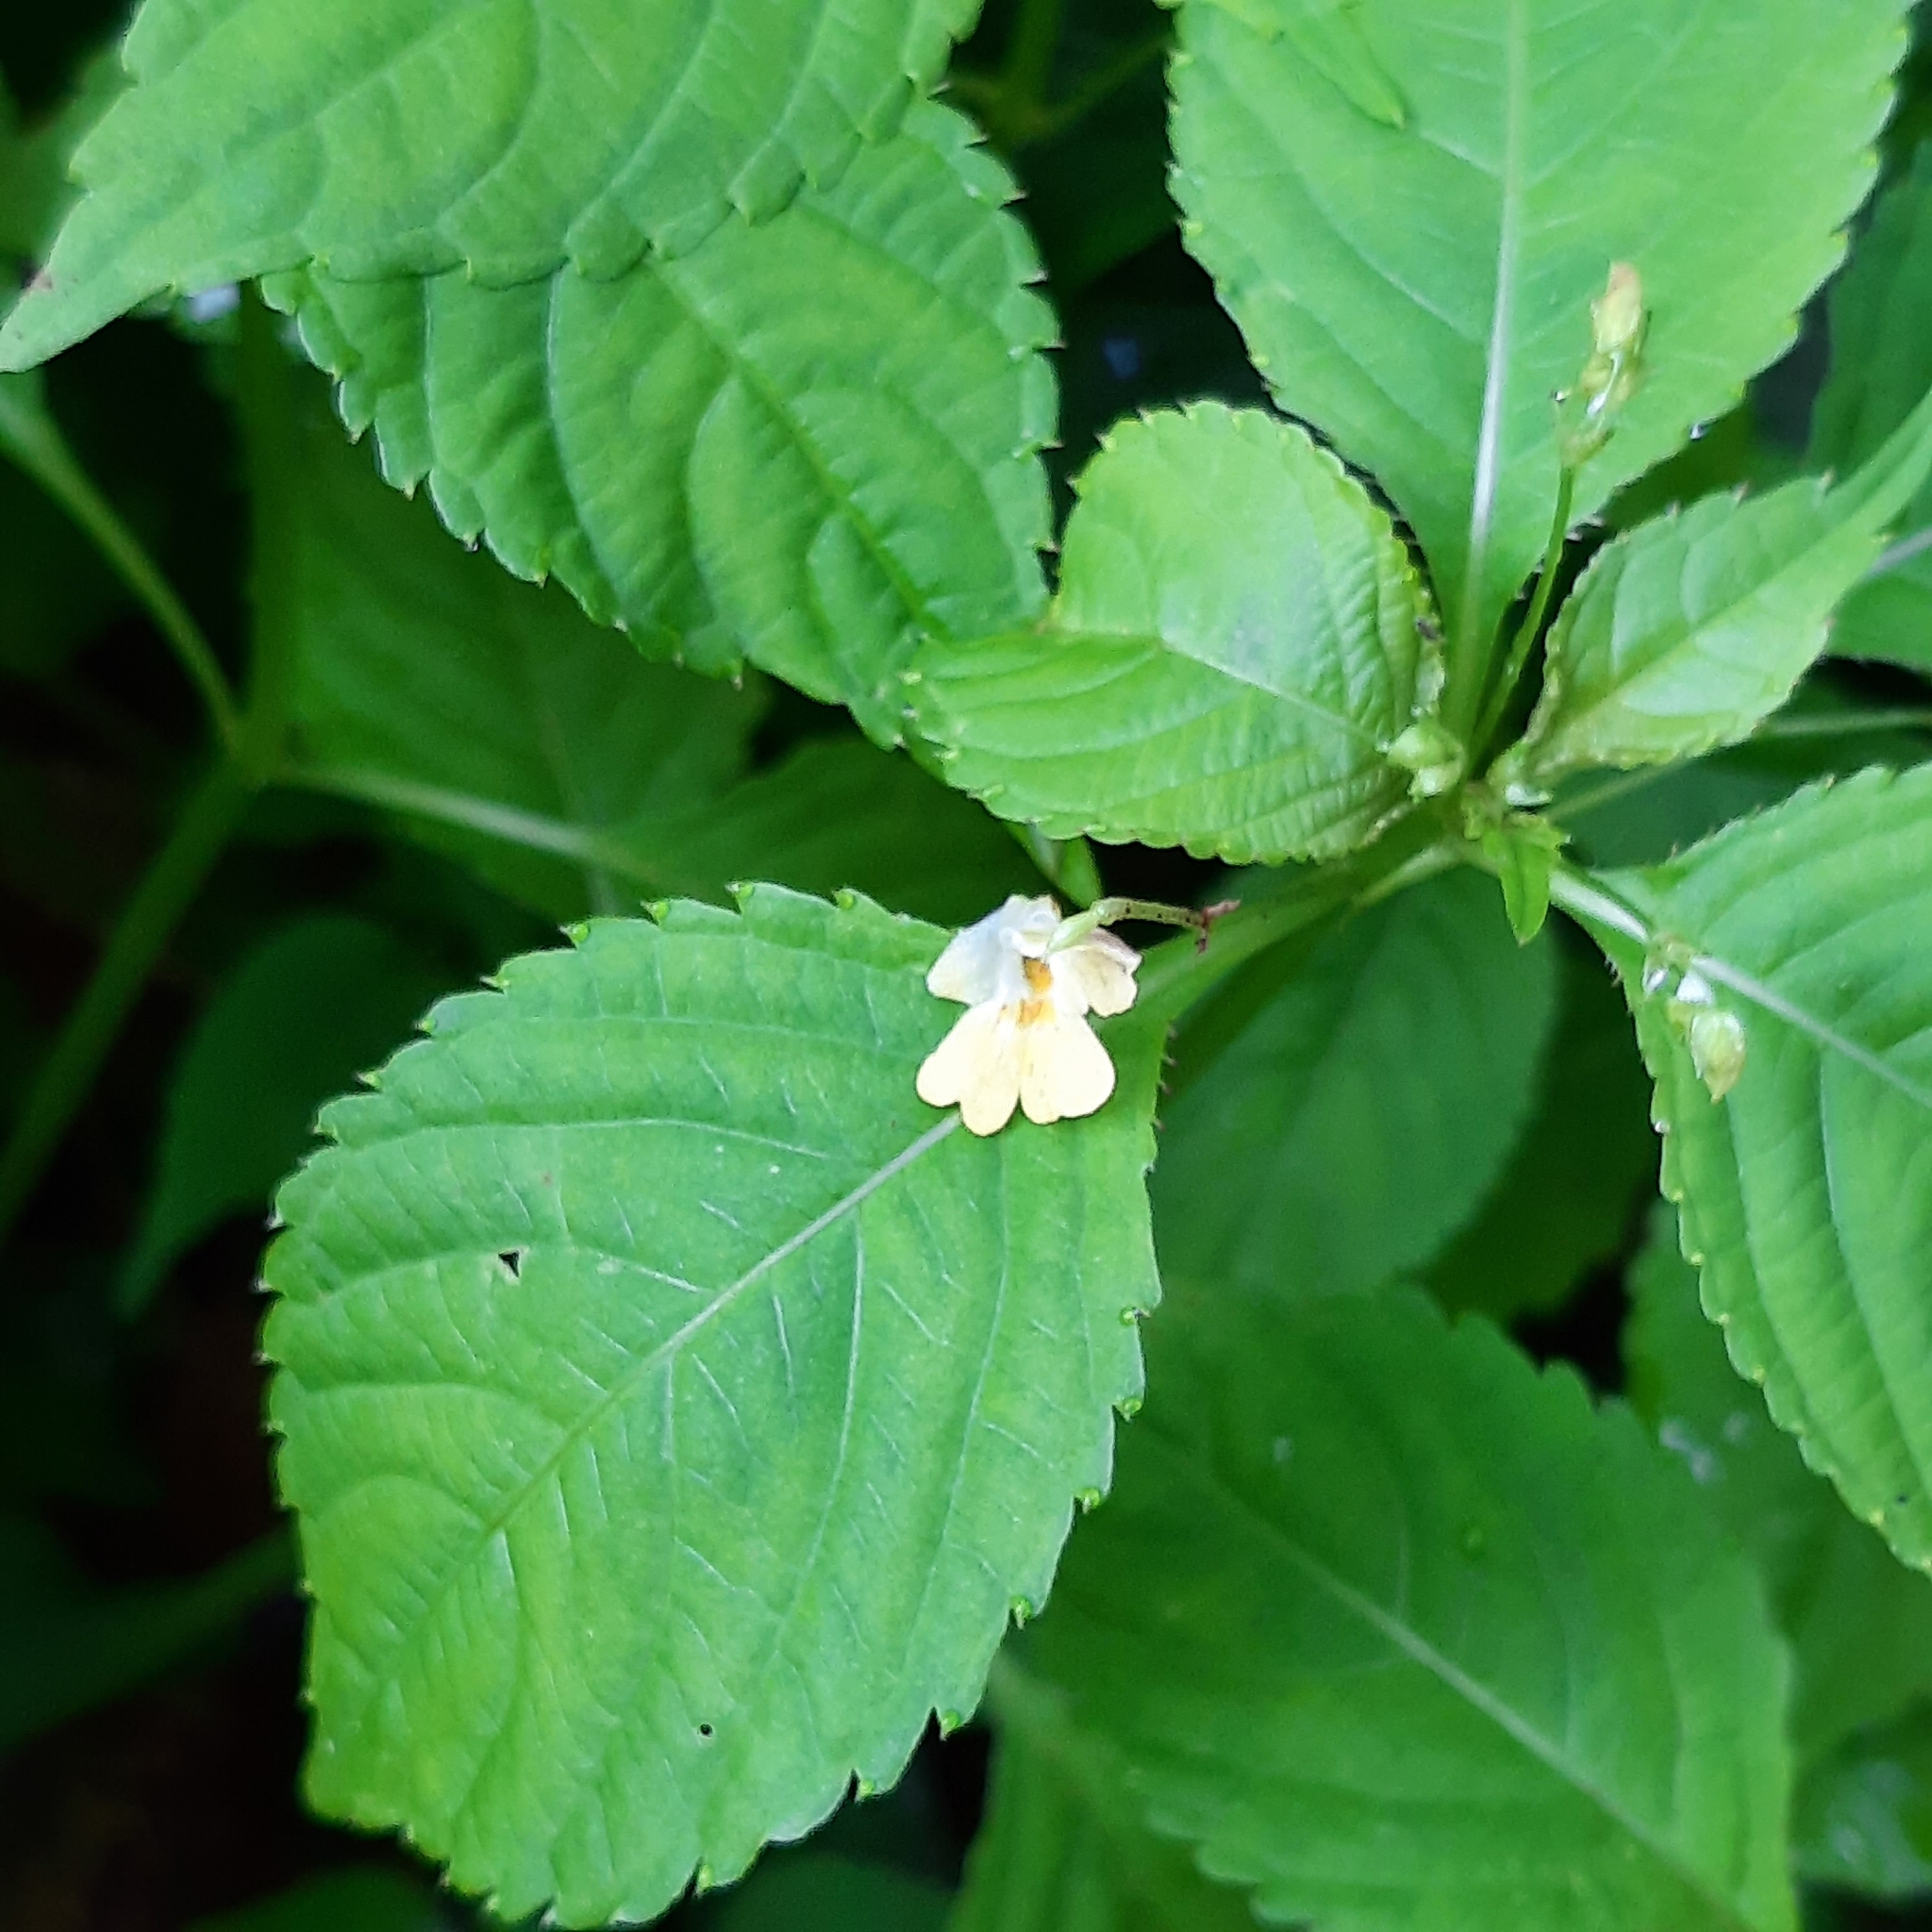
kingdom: Plantae
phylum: Tracheophyta
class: Magnoliopsida
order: Ericales
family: Balsaminaceae
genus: Impatiens
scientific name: Impatiens parviflora
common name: Small balsam
